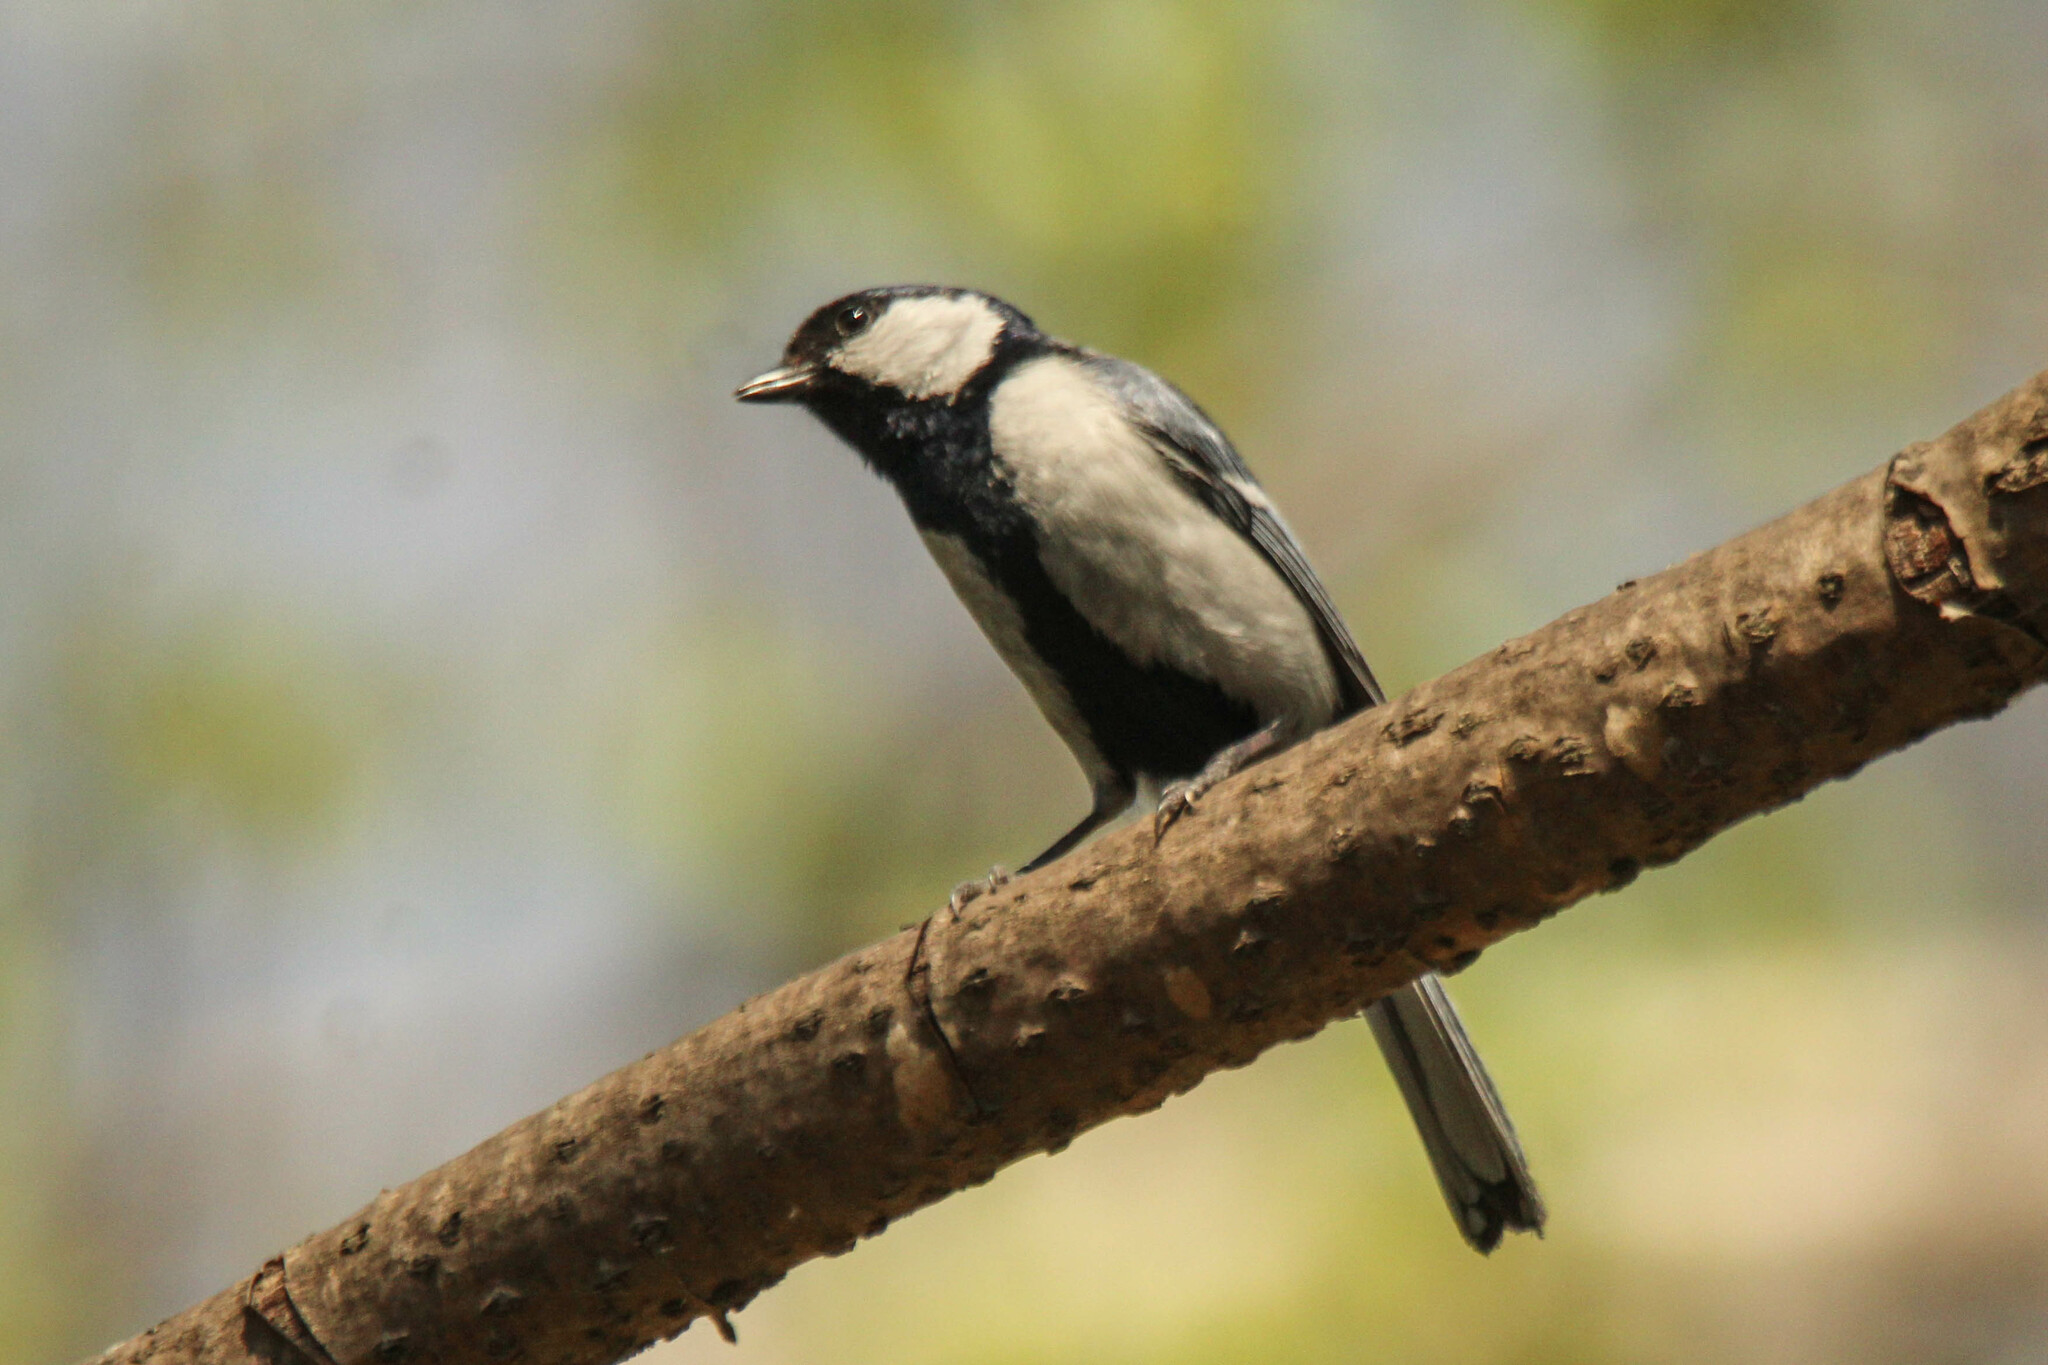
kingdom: Animalia
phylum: Chordata
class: Aves
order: Passeriformes
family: Paridae
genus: Parus
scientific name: Parus minor
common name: Japanese tit
